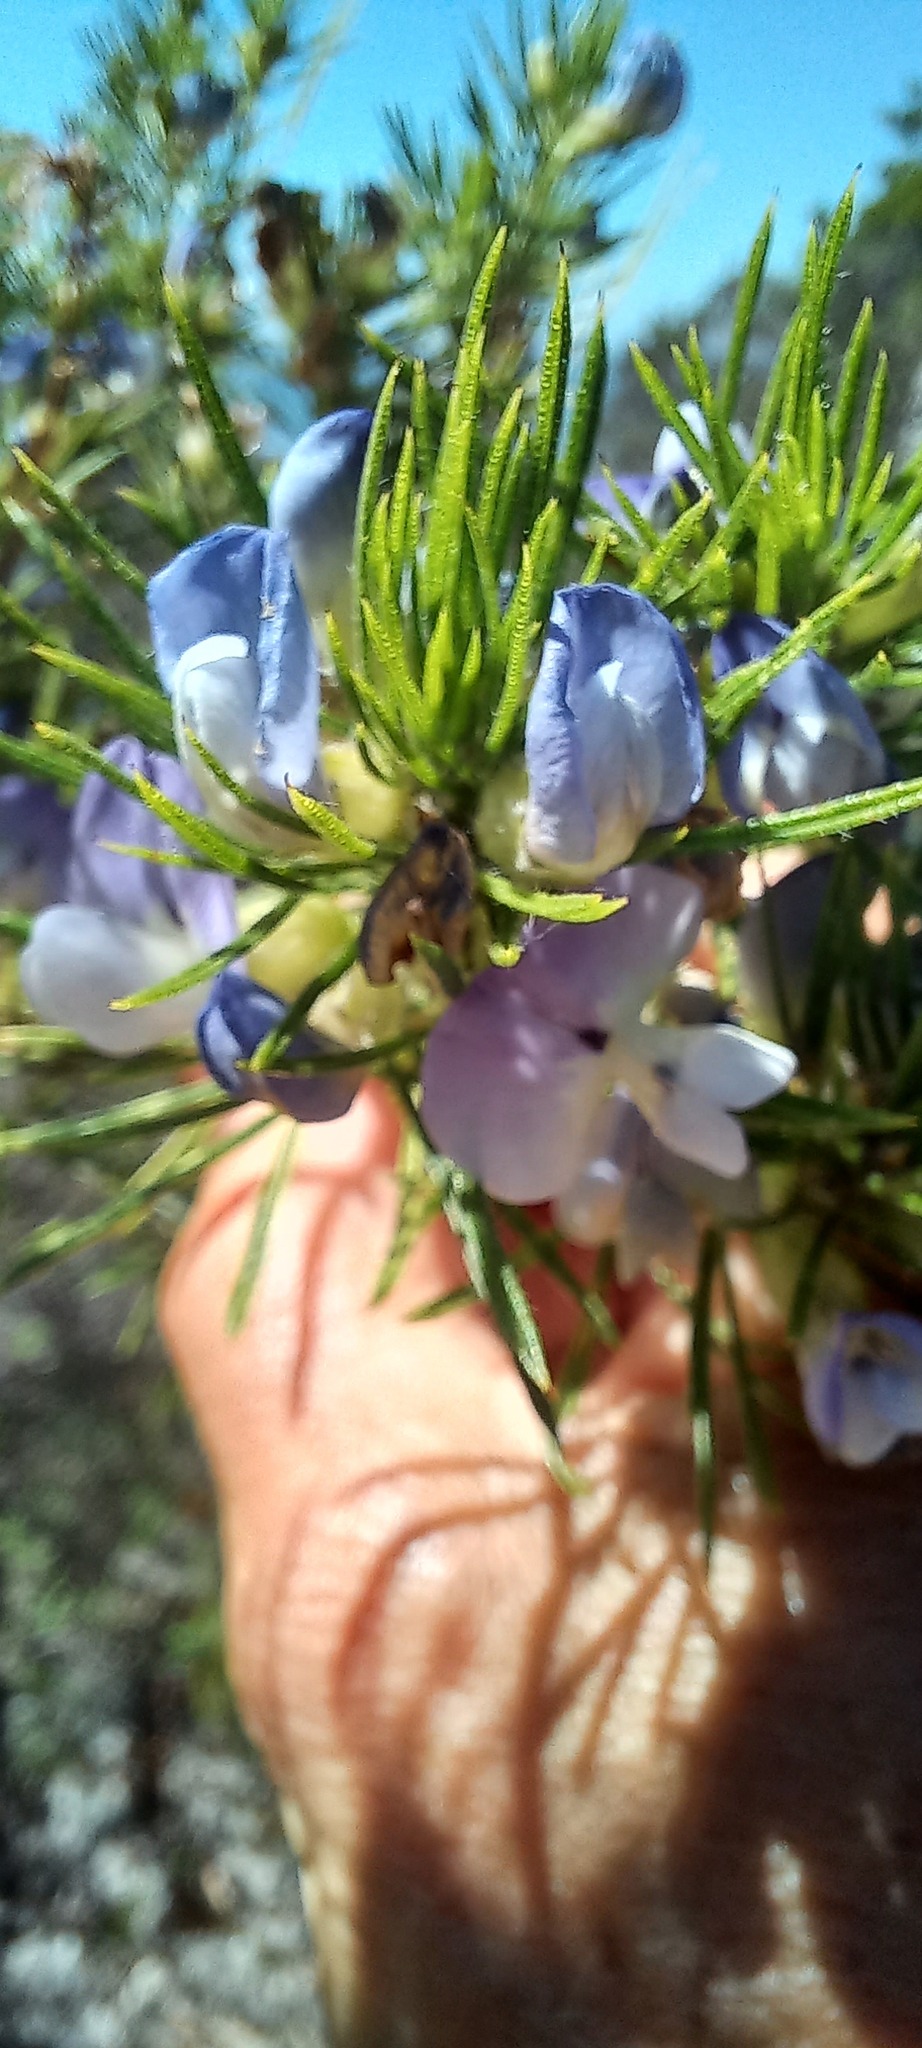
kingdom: Plantae
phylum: Tracheophyta
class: Magnoliopsida
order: Fabales
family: Fabaceae
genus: Psoralea
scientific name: Psoralea ivumba
